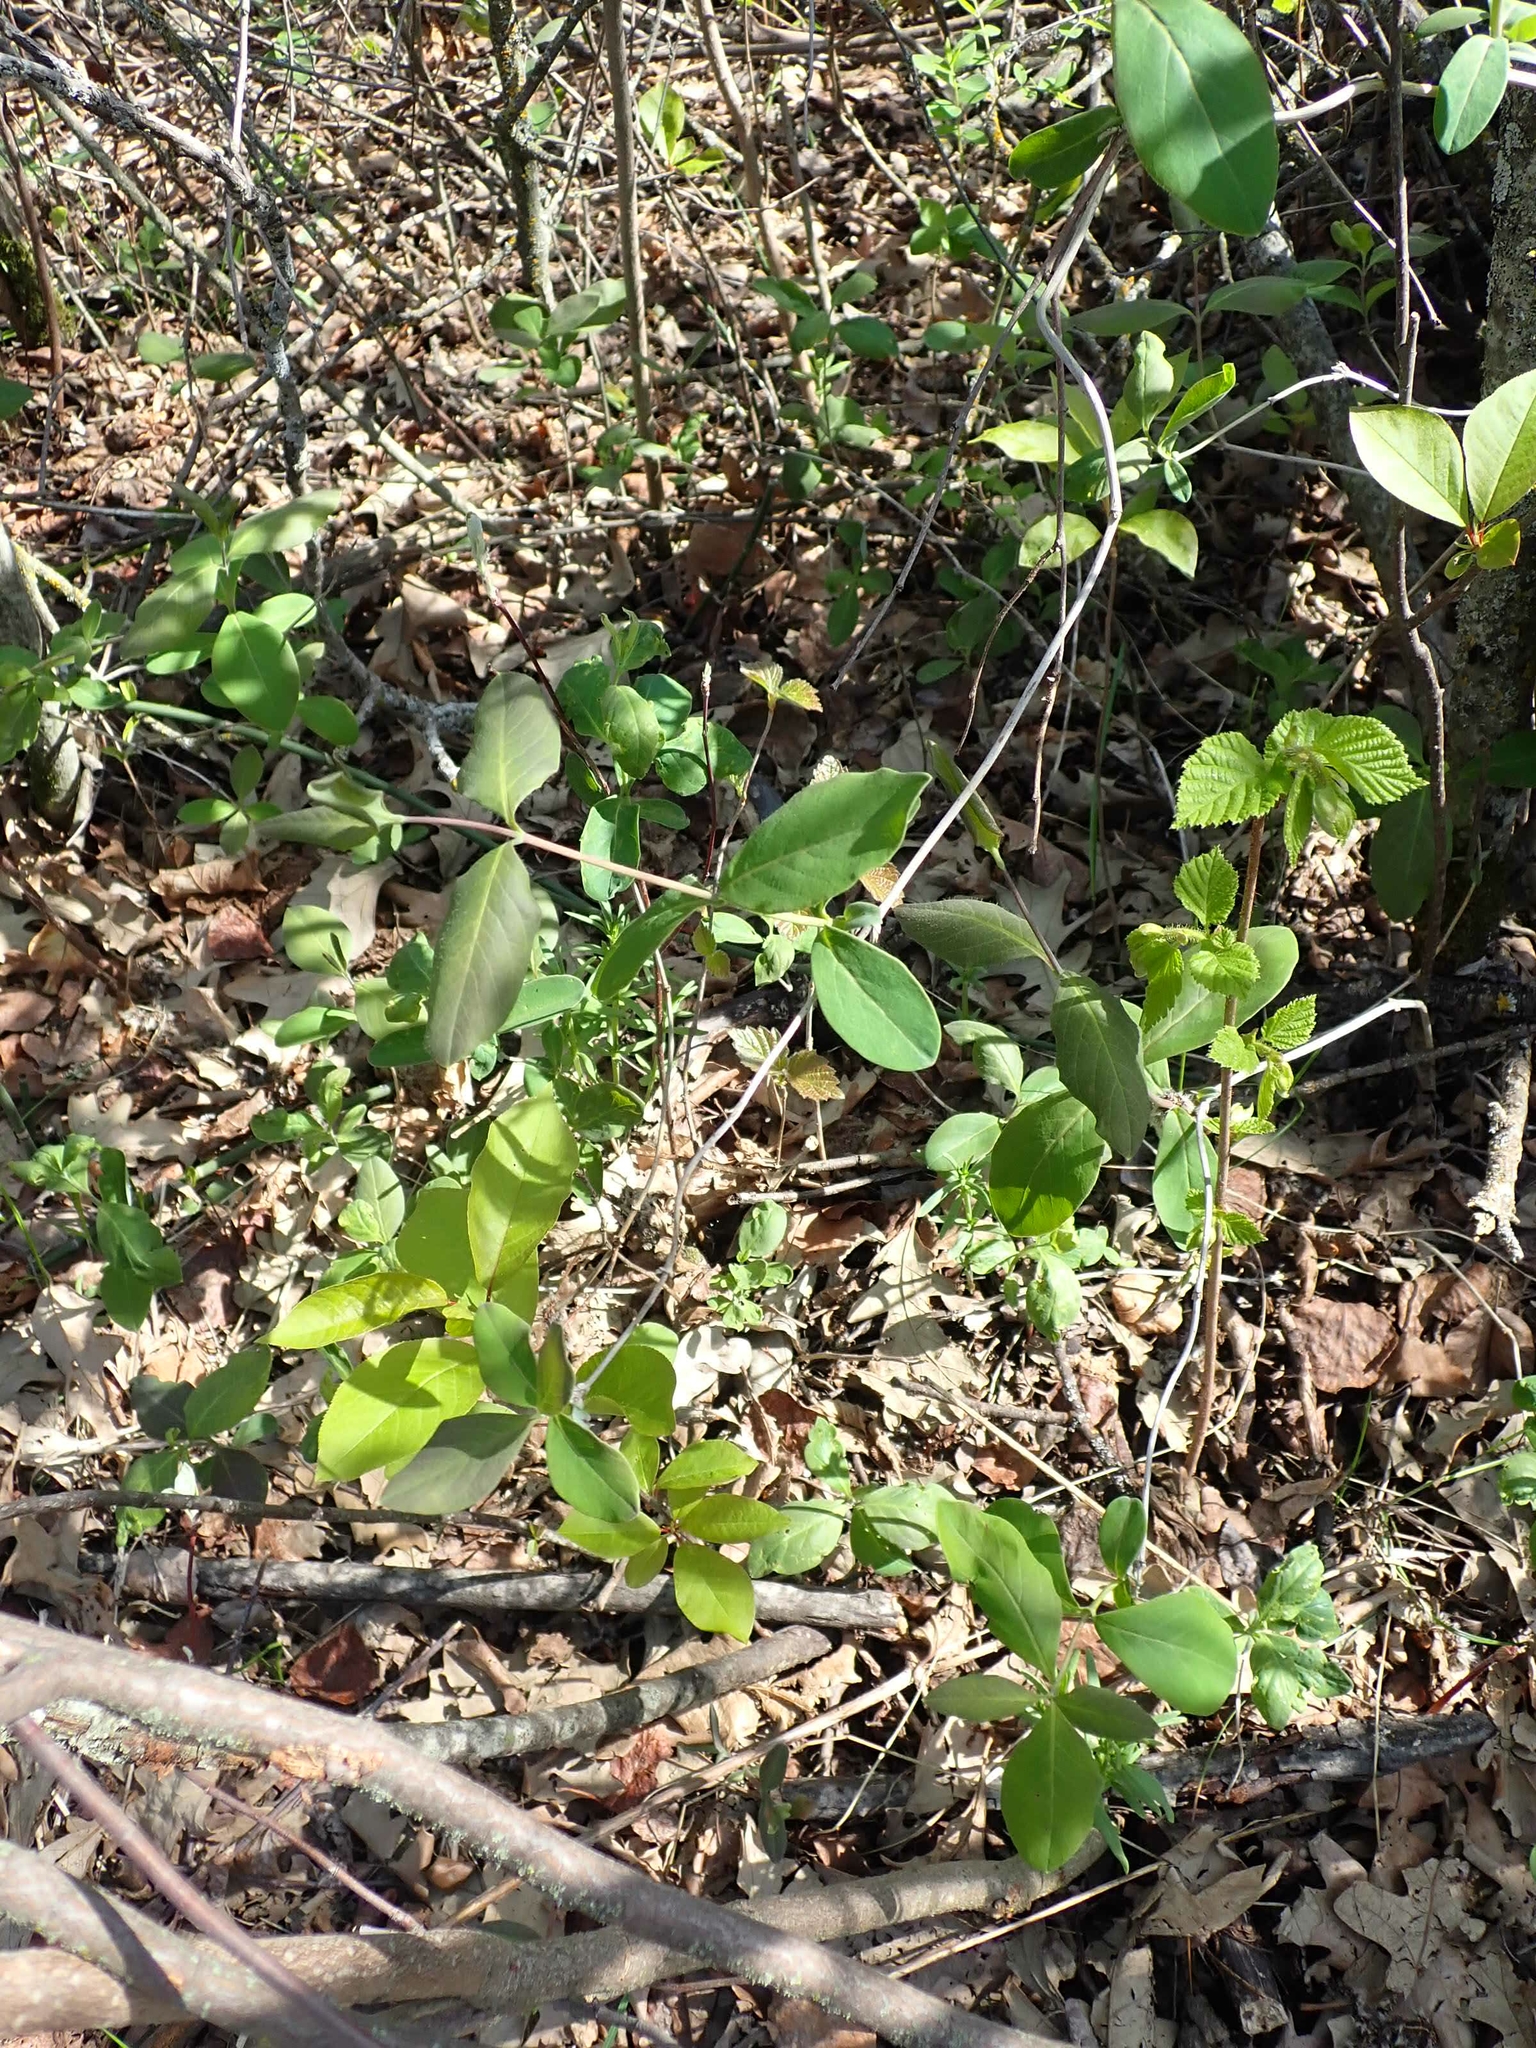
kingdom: Plantae
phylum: Tracheophyta
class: Magnoliopsida
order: Dipsacales
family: Caprifoliaceae
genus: Lonicera
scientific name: Lonicera dioica
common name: Limber honeysuckle
